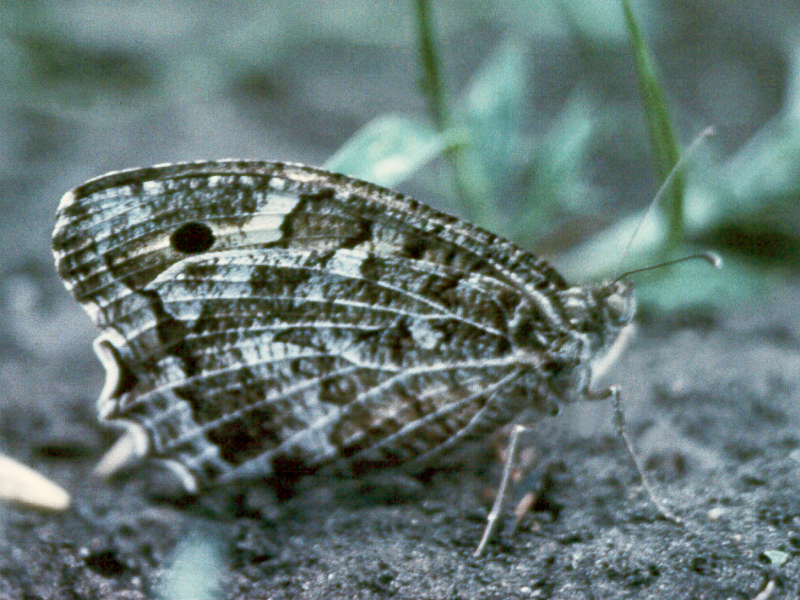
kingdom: Animalia
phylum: Arthropoda
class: Insecta
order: Lepidoptera
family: Nymphalidae
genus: Satyrus
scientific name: Satyrus Chazara persephone
